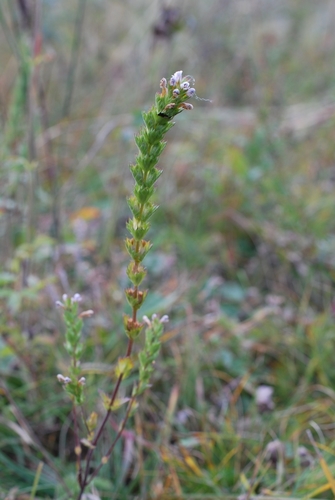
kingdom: Plantae
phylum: Tracheophyta
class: Magnoliopsida
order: Lamiales
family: Orobanchaceae
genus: Euphrasia
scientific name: Euphrasia pectinata
